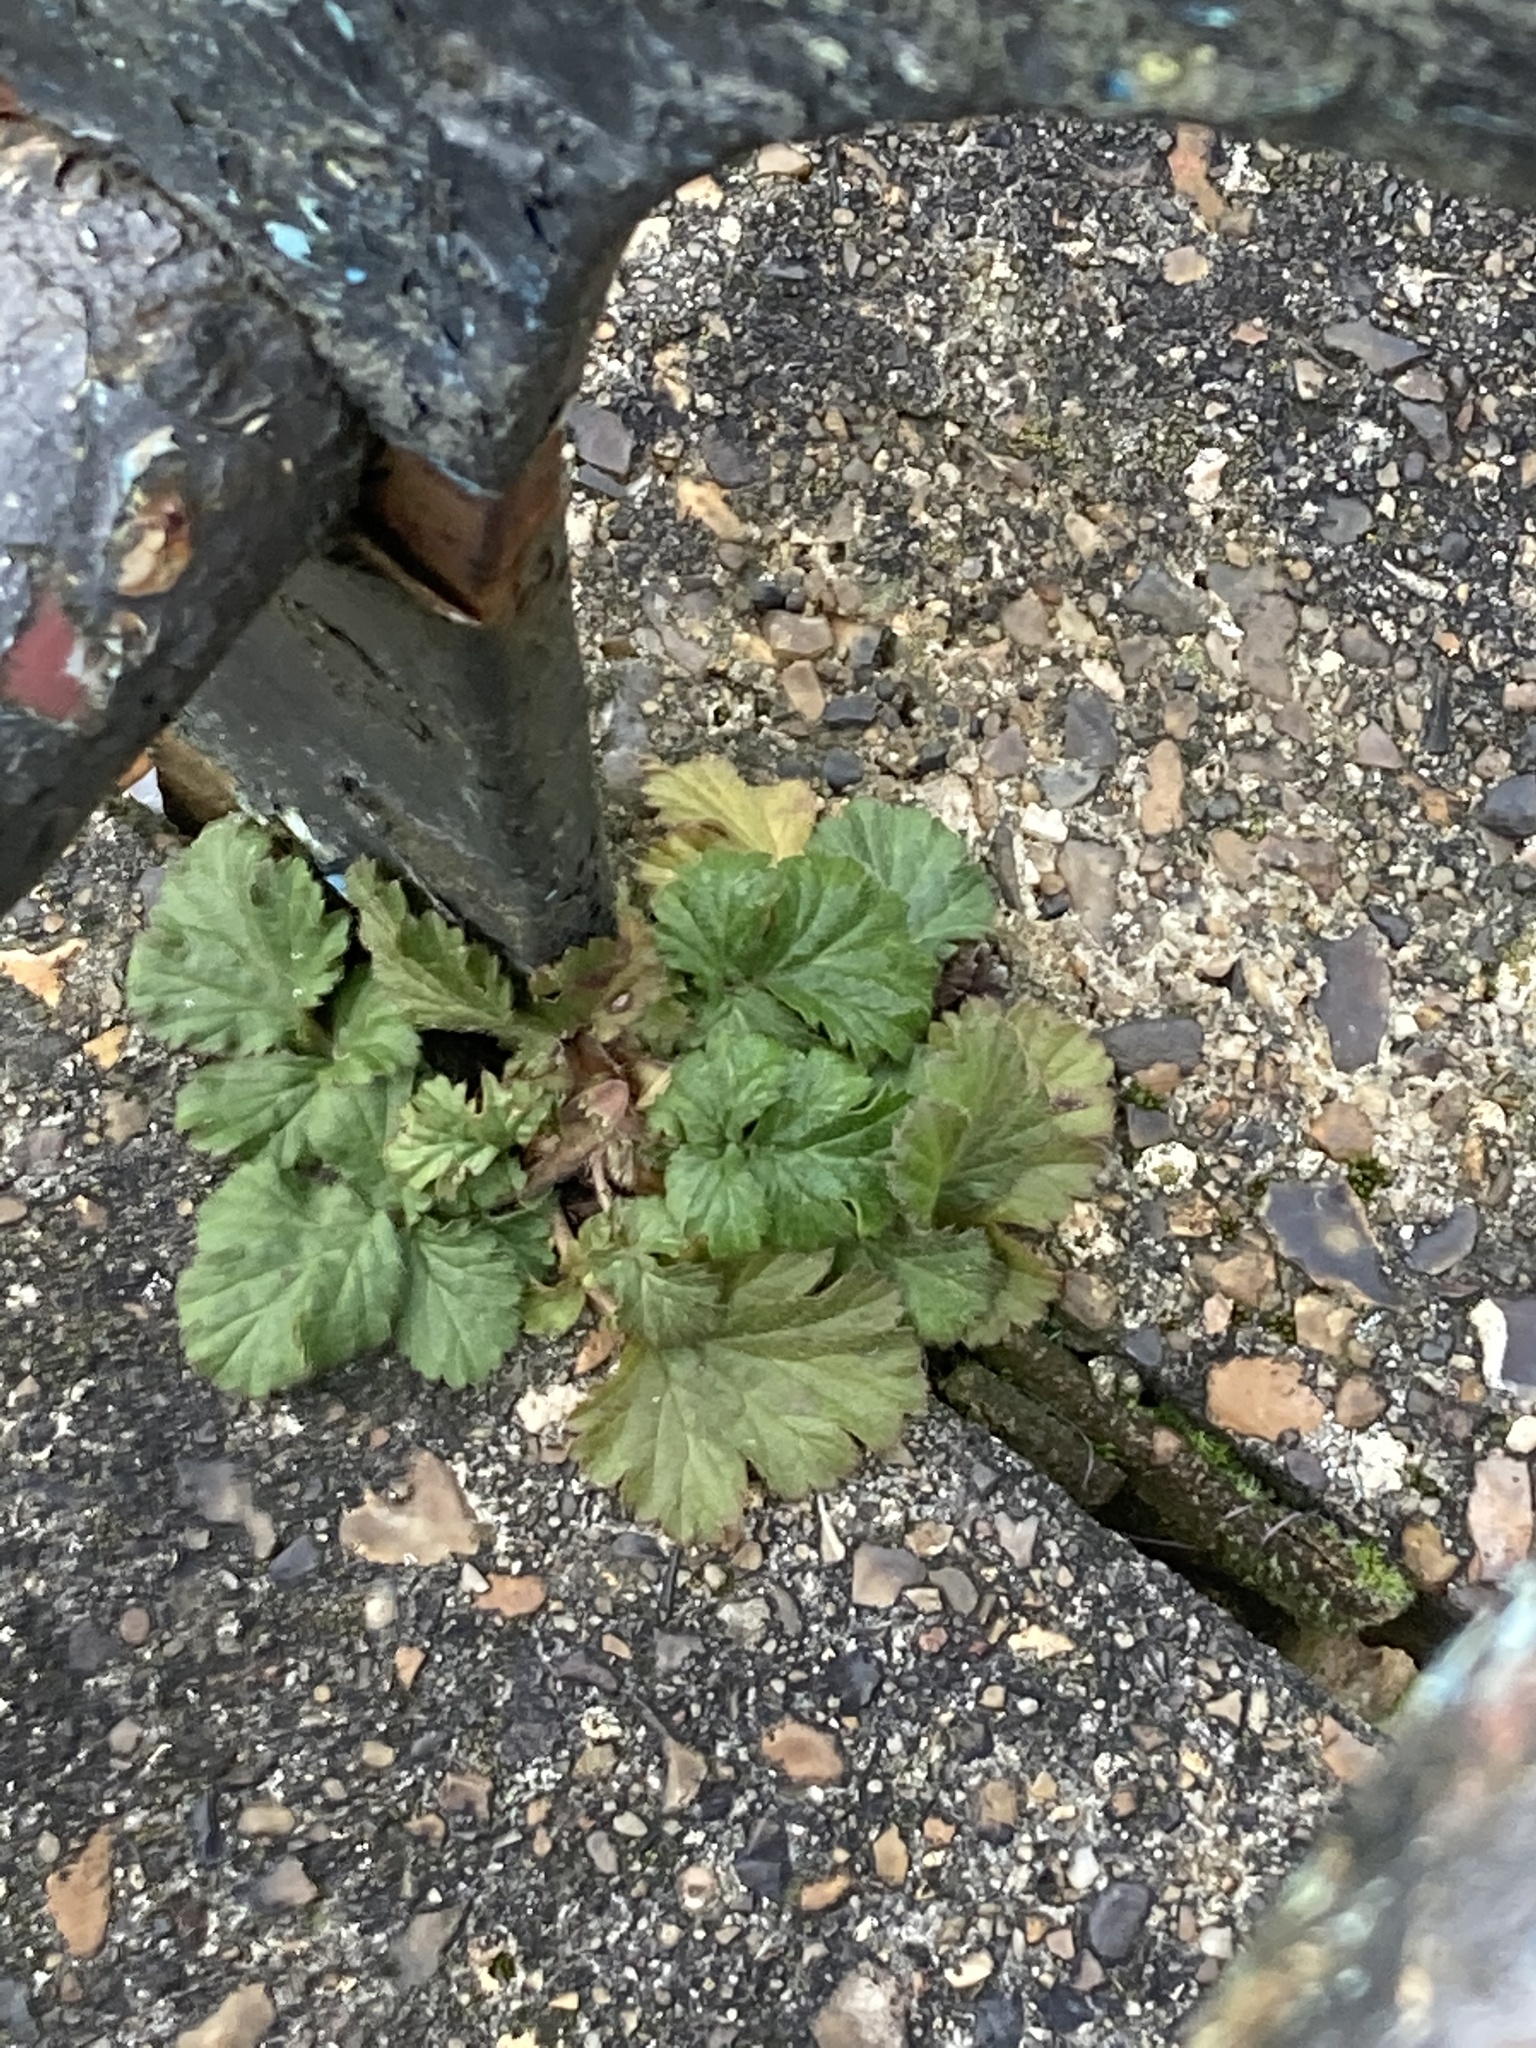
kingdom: Plantae
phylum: Tracheophyta
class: Magnoliopsida
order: Rosales
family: Rosaceae
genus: Geum
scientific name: Geum urbanum
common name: Wood avens
